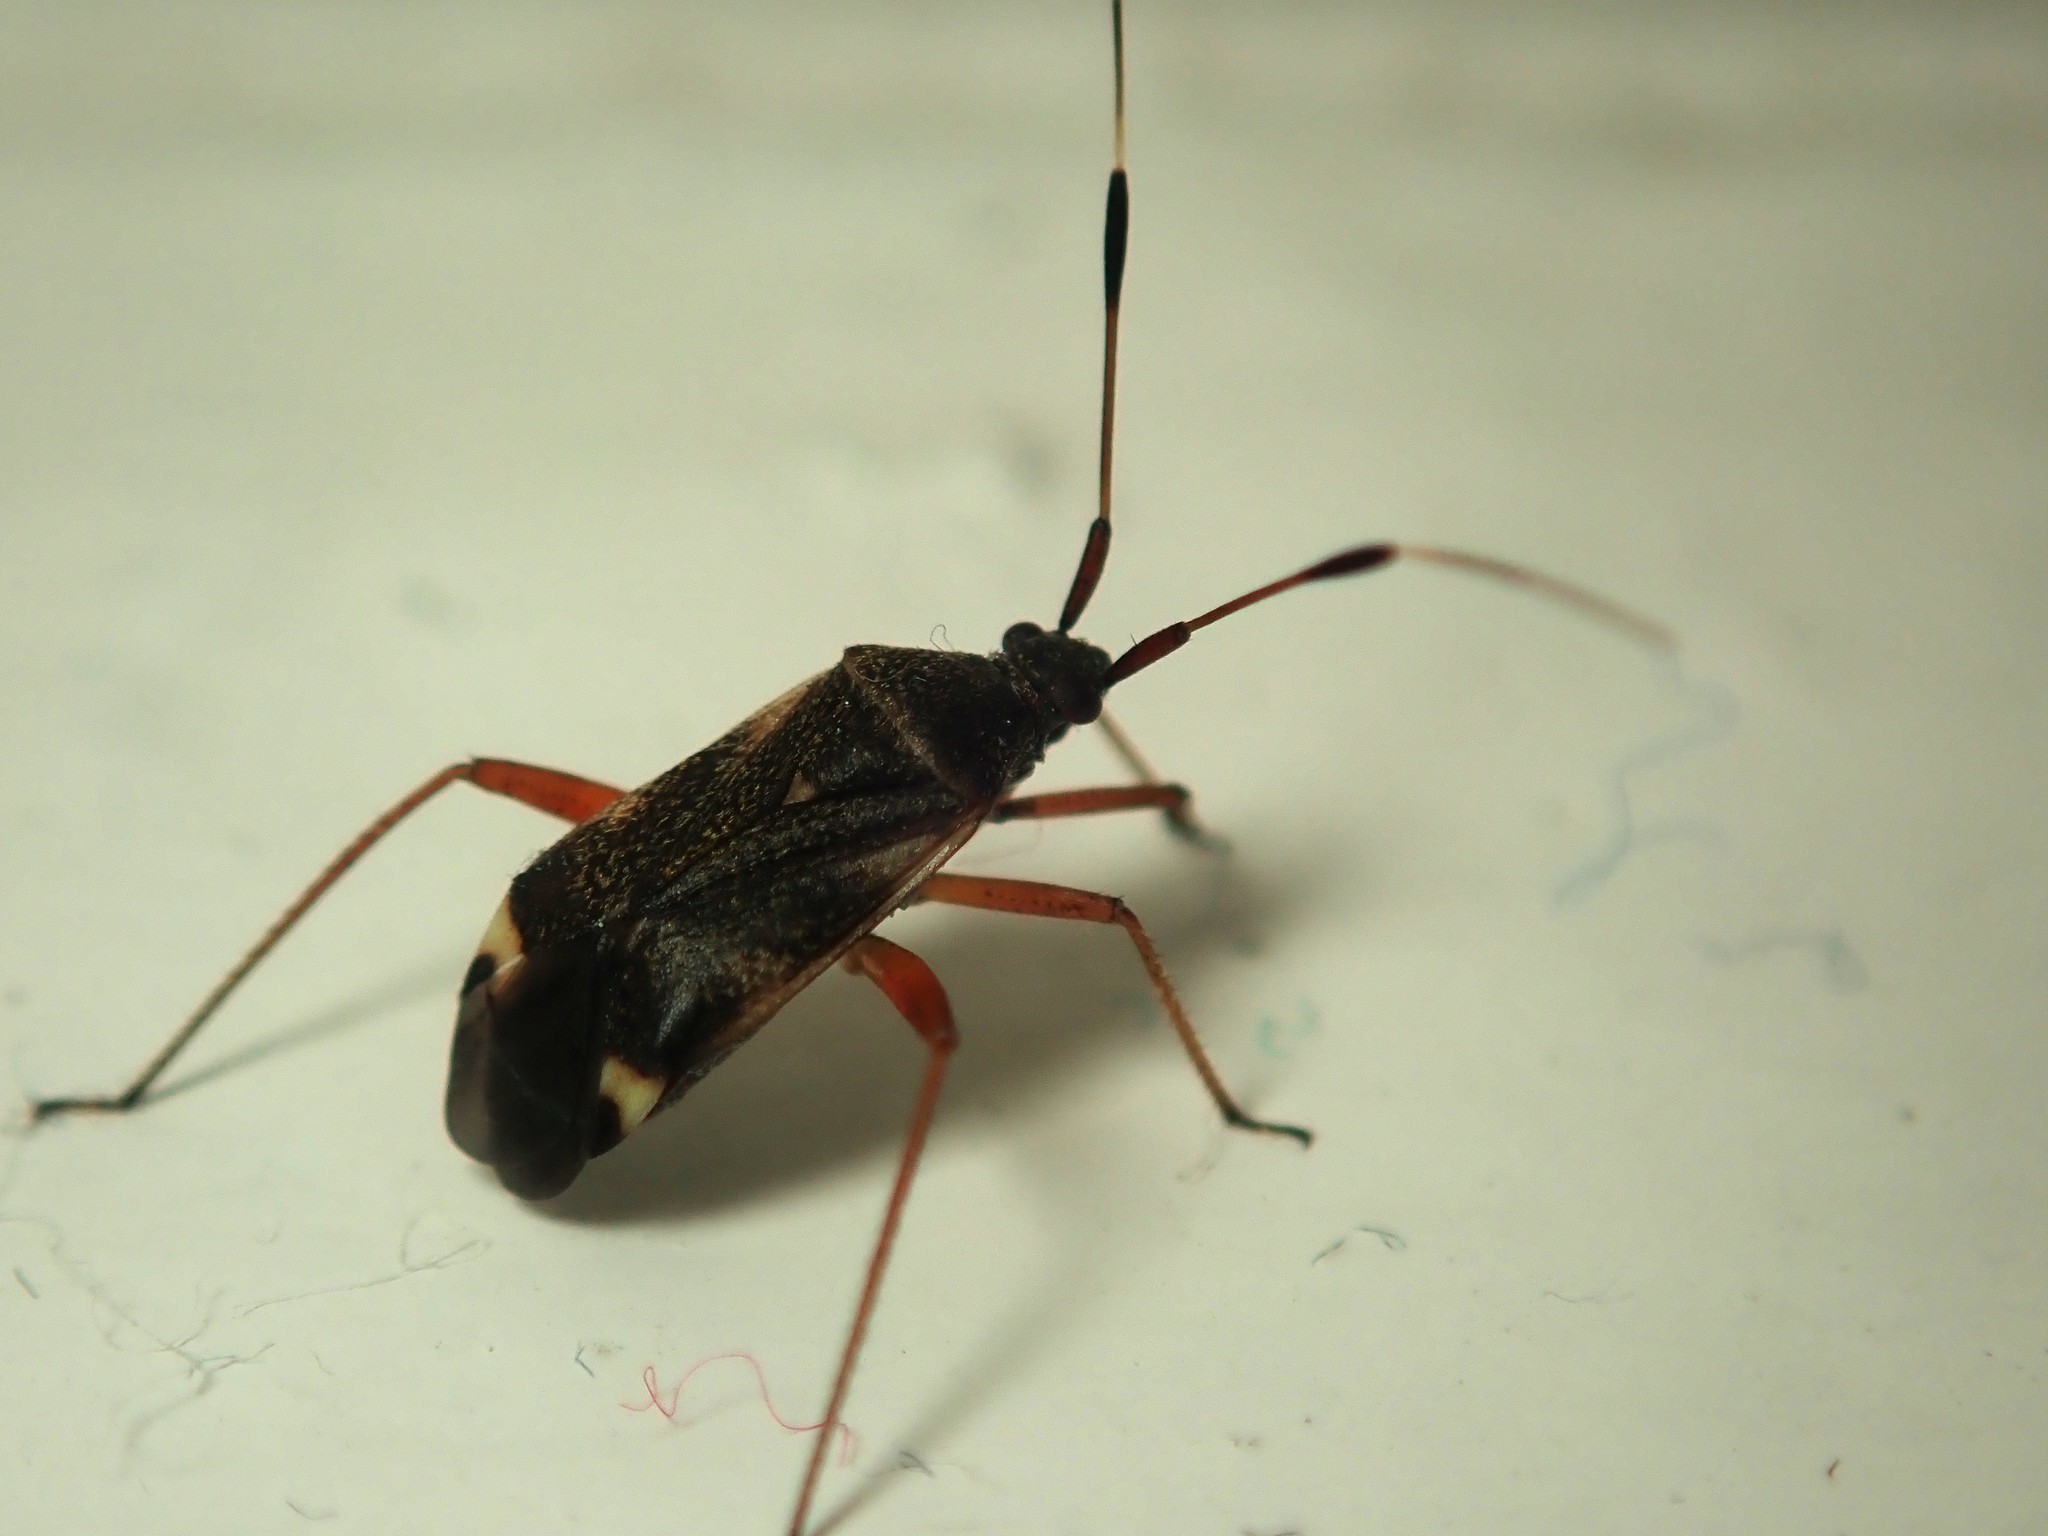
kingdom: Animalia
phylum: Arthropoda
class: Insecta
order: Hemiptera
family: Miridae
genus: Closterotomus
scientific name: Closterotomus biclavatus
